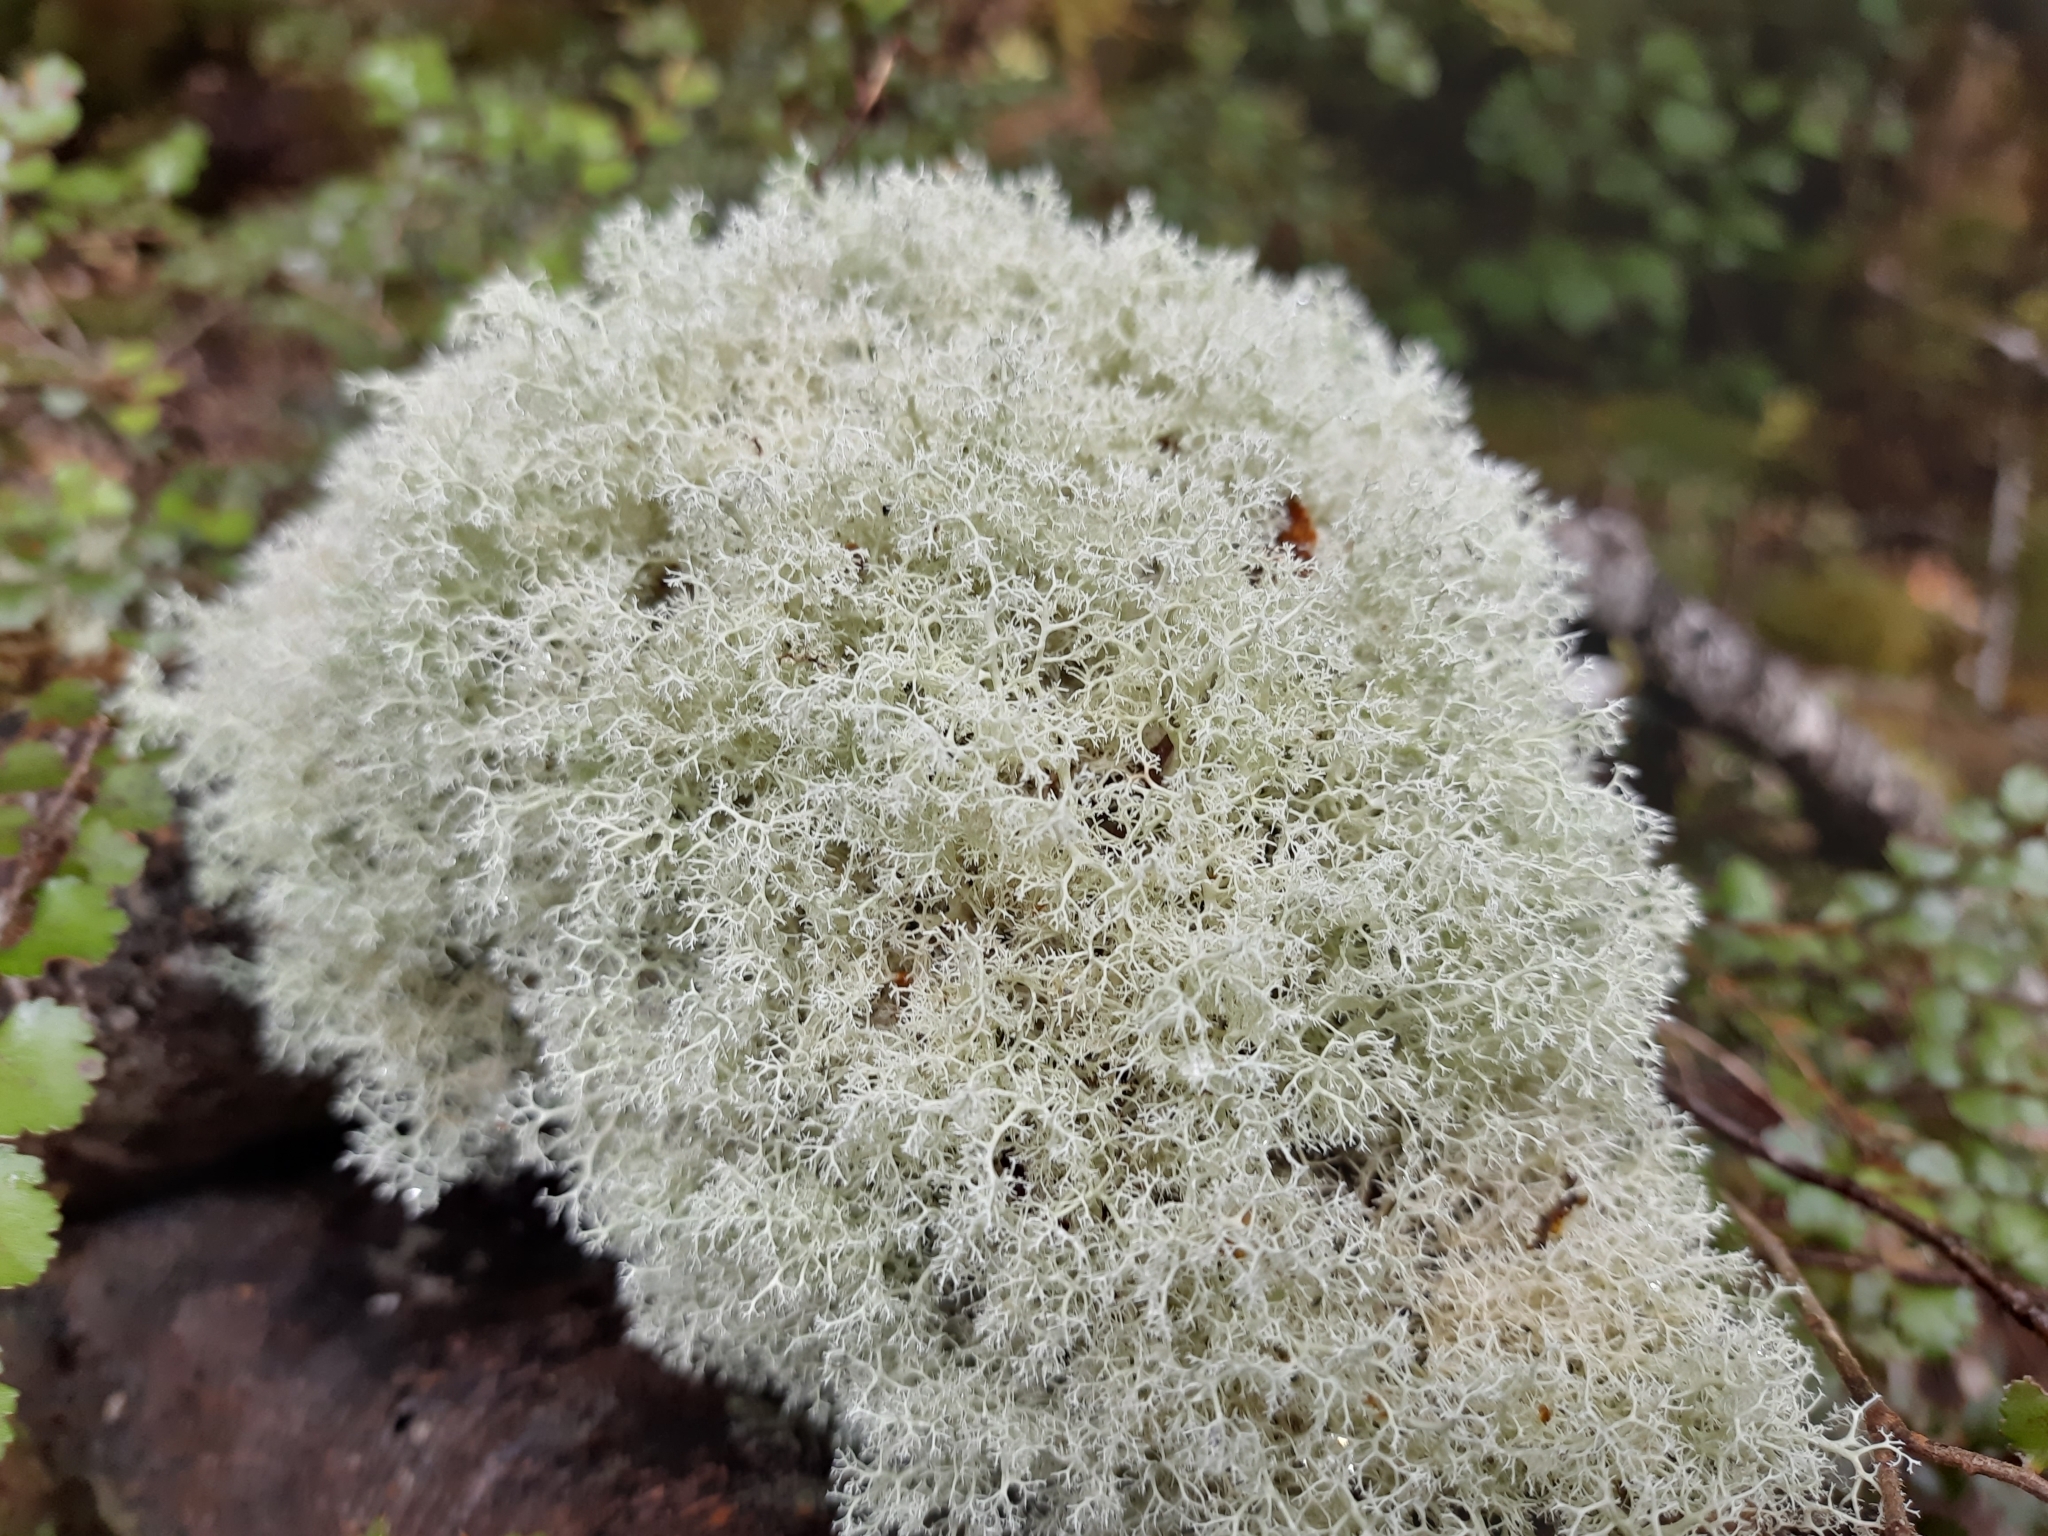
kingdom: Fungi
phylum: Ascomycota
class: Lecanoromycetes
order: Lecanorales
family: Cladoniaceae
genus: Cladonia
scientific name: Cladonia confusa
